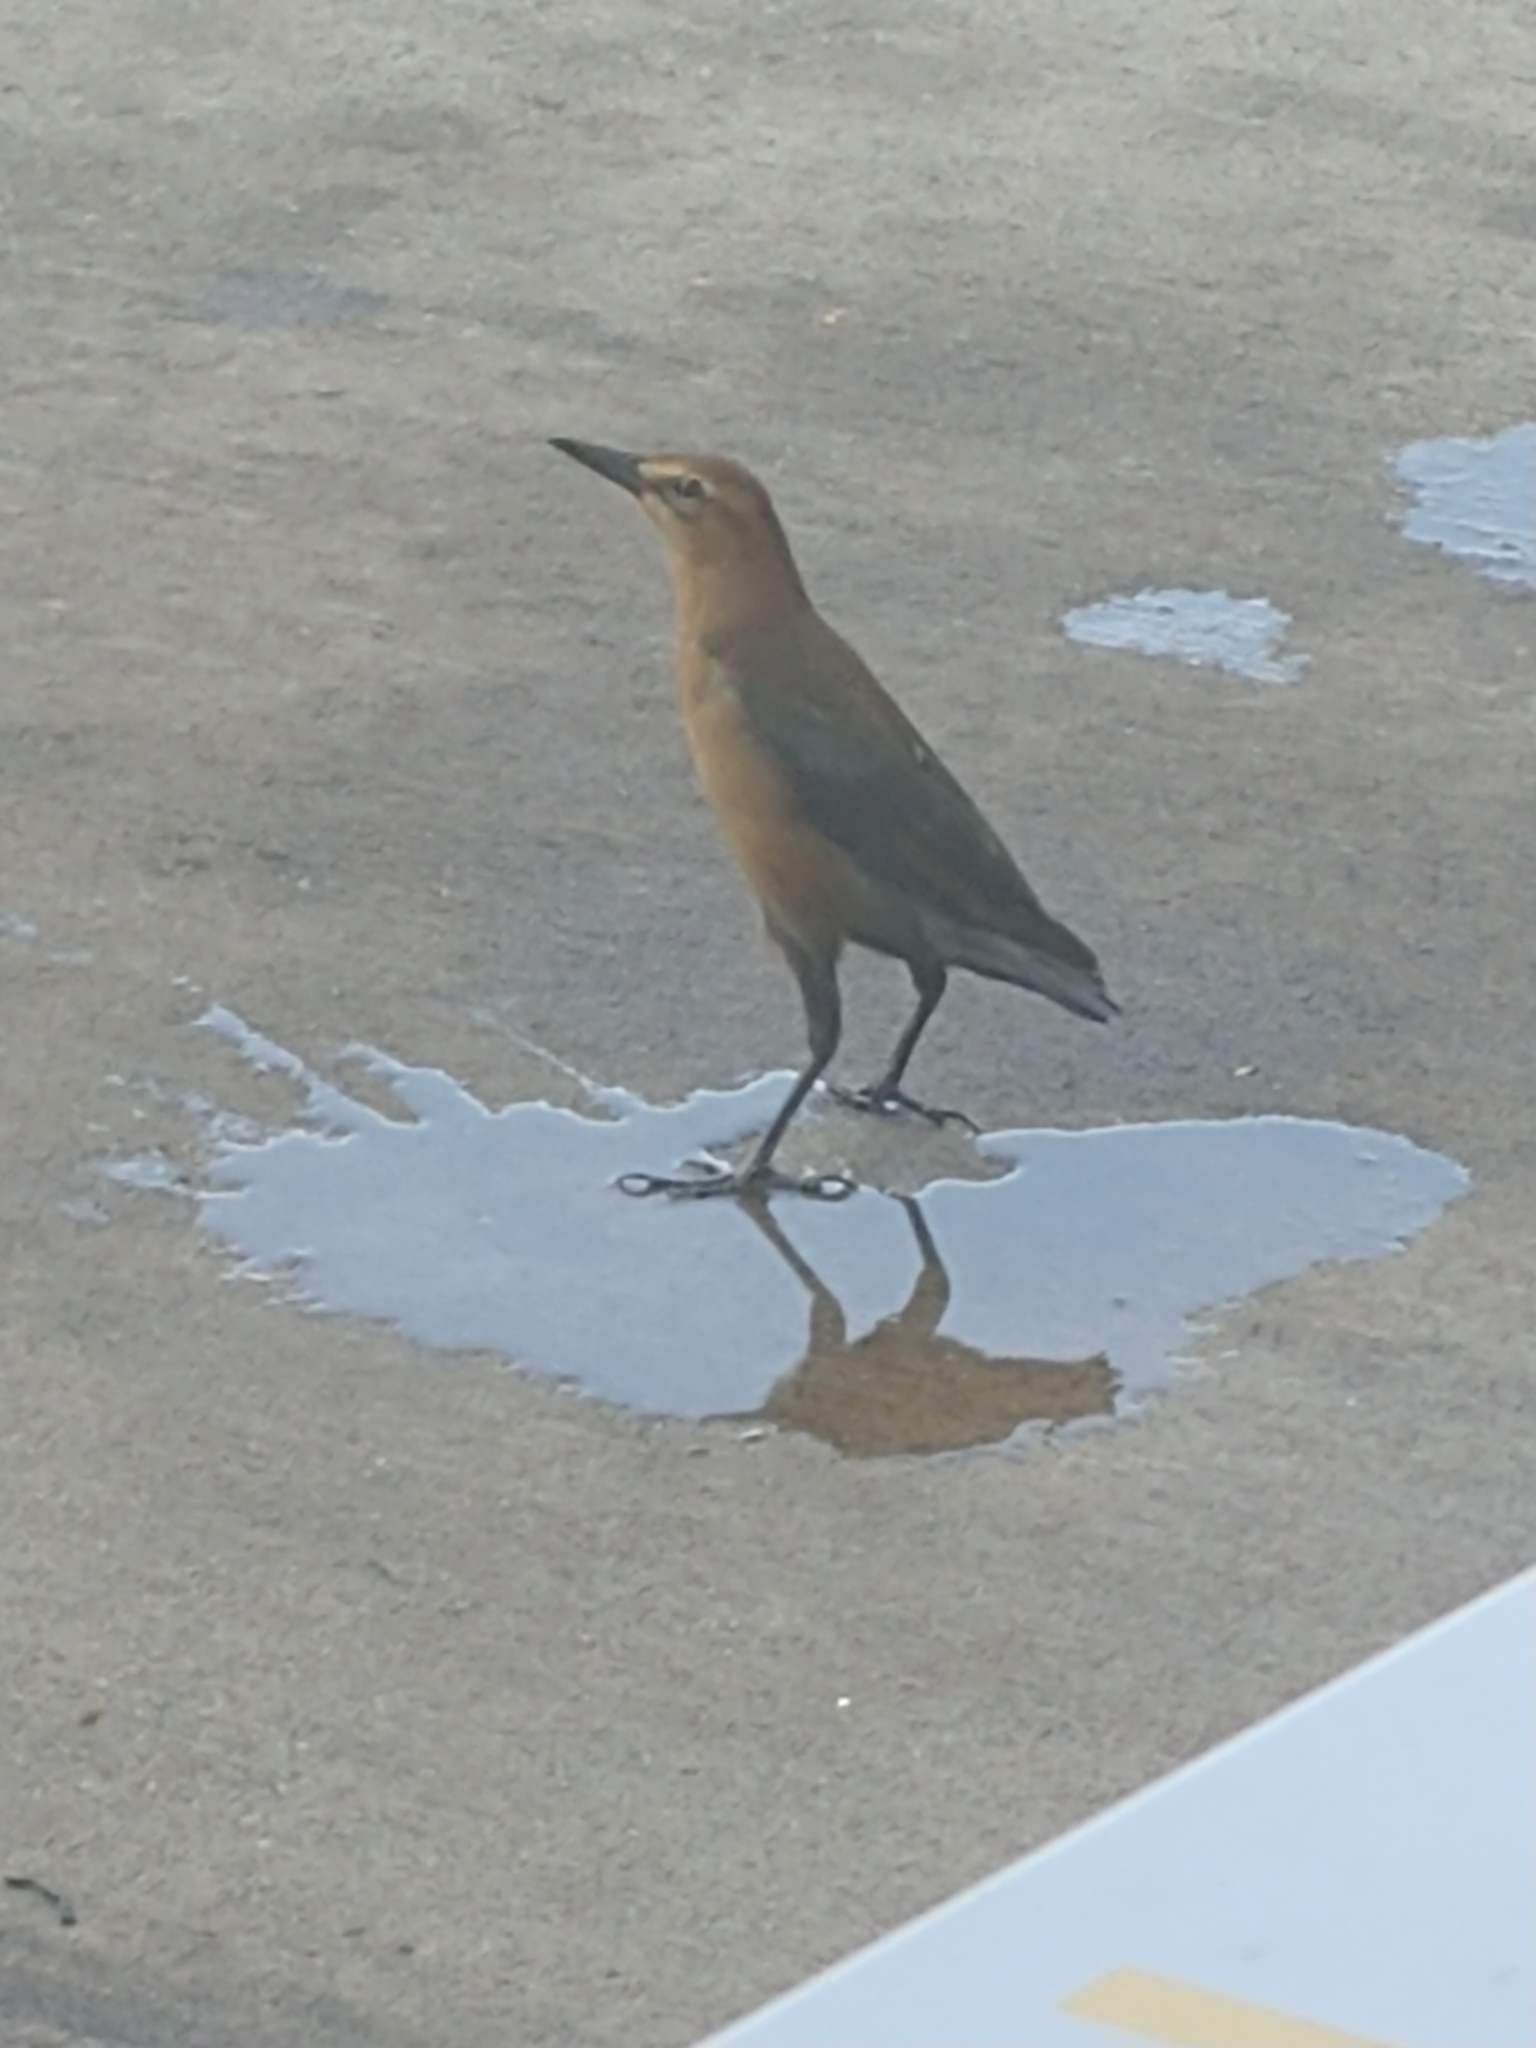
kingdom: Animalia
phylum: Chordata
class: Aves
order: Passeriformes
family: Icteridae
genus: Quiscalus
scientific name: Quiscalus major
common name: Boat-tailed grackle
